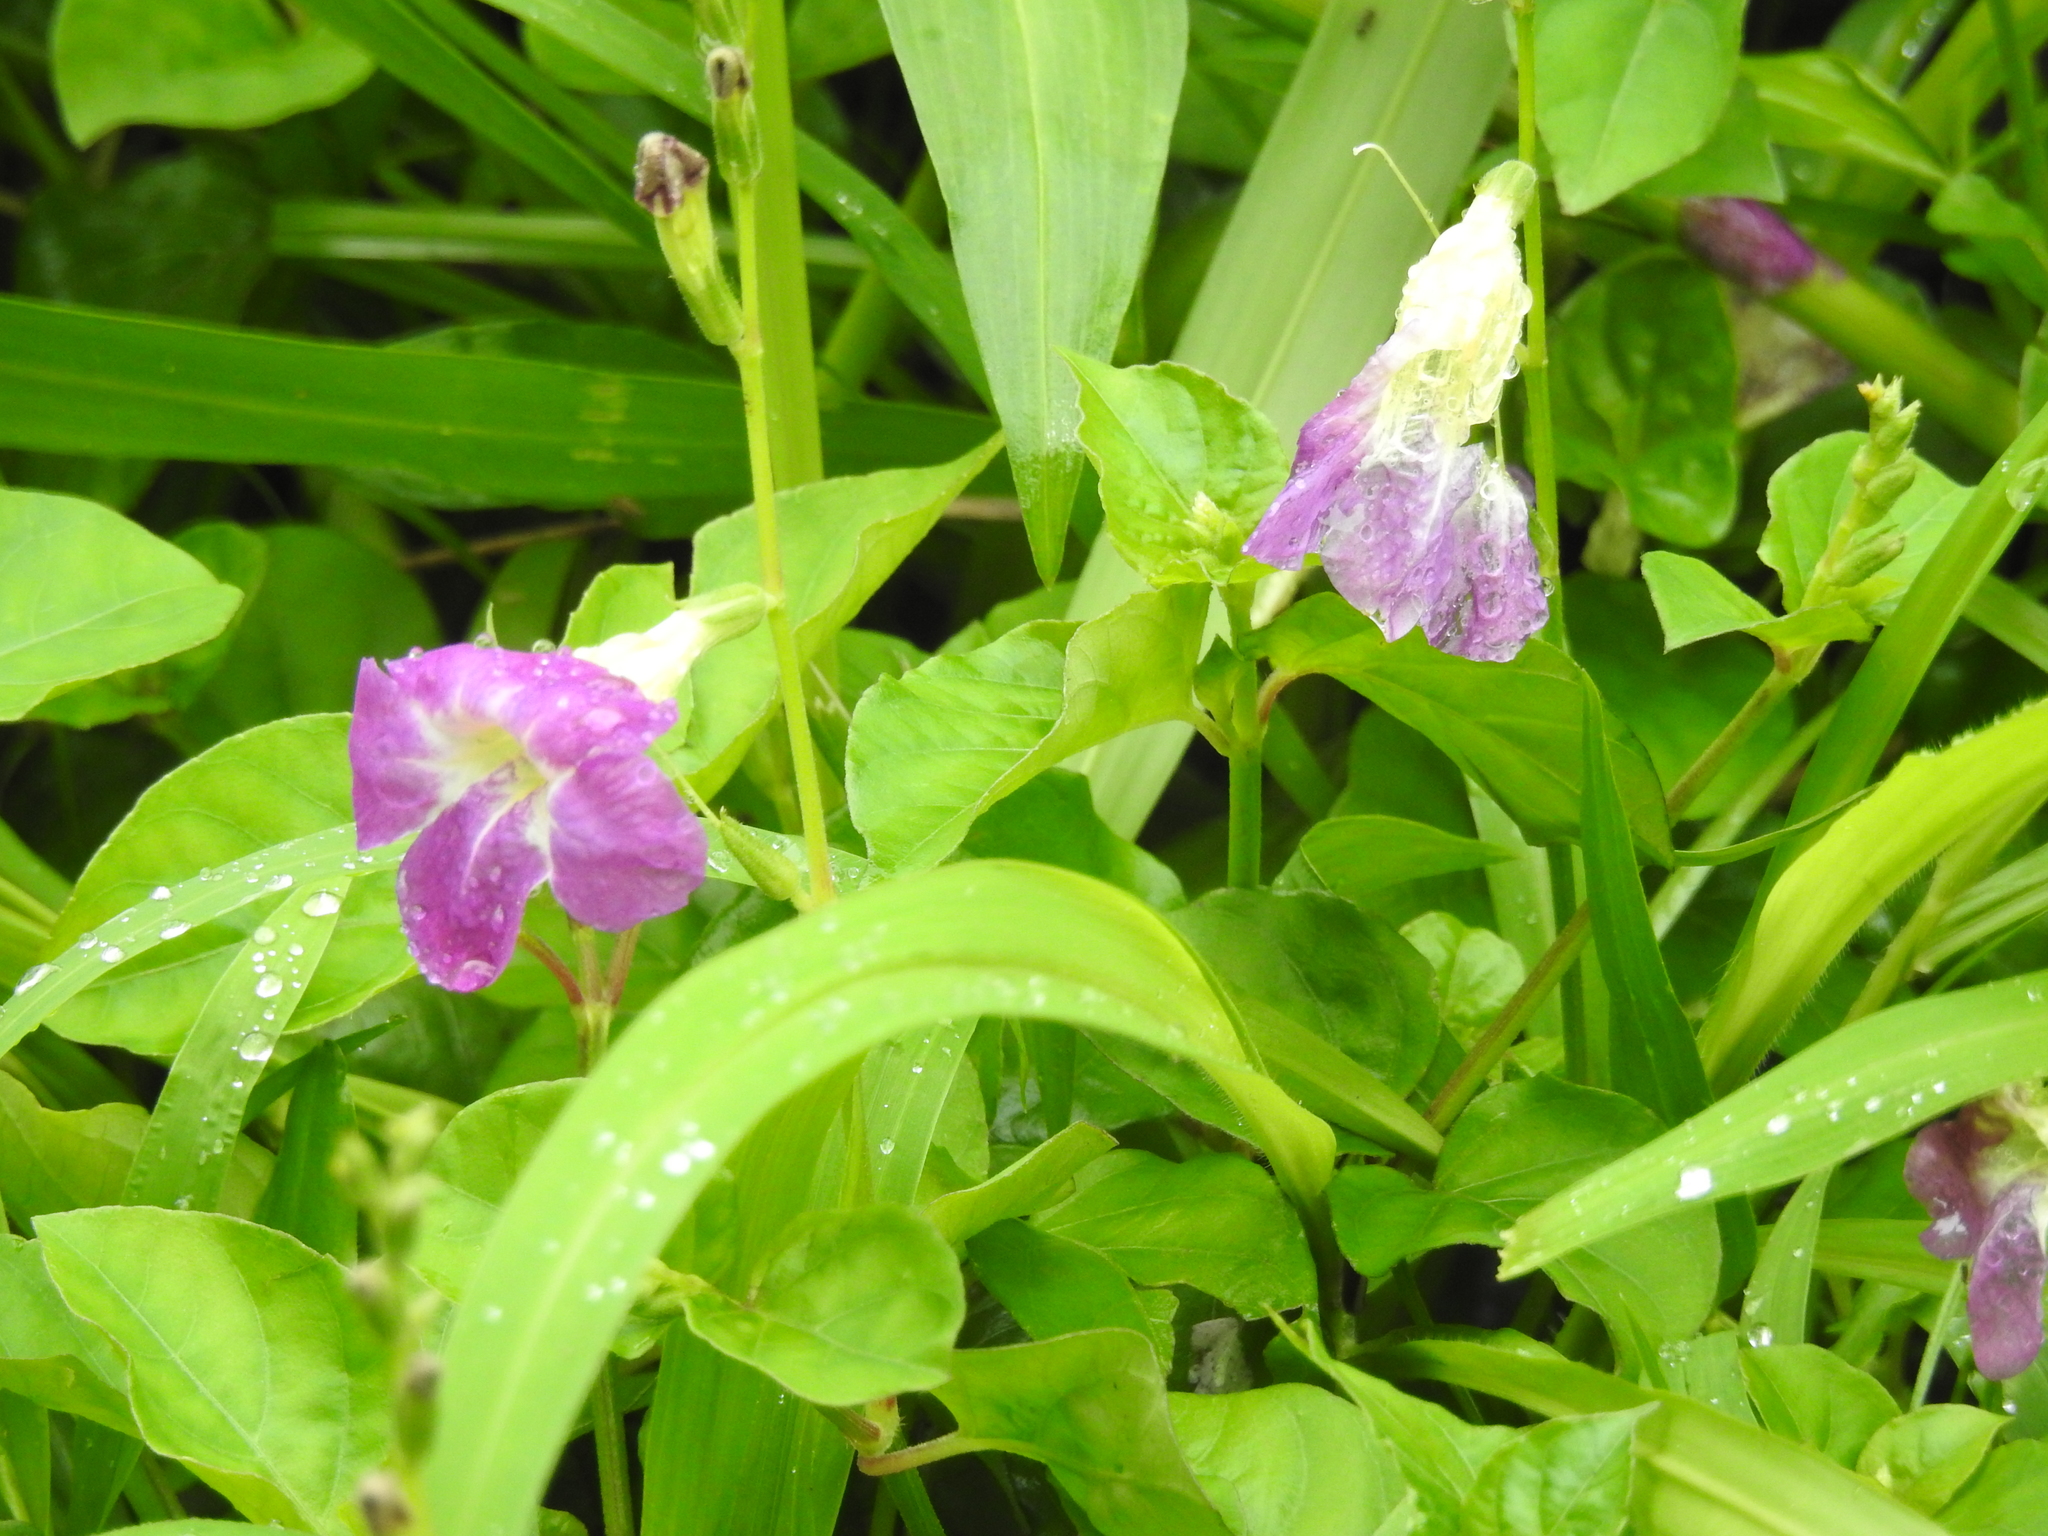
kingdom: Plantae
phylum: Tracheophyta
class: Magnoliopsida
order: Lamiales
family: Acanthaceae
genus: Asystasia
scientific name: Asystasia gangetica
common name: Chinese violet
